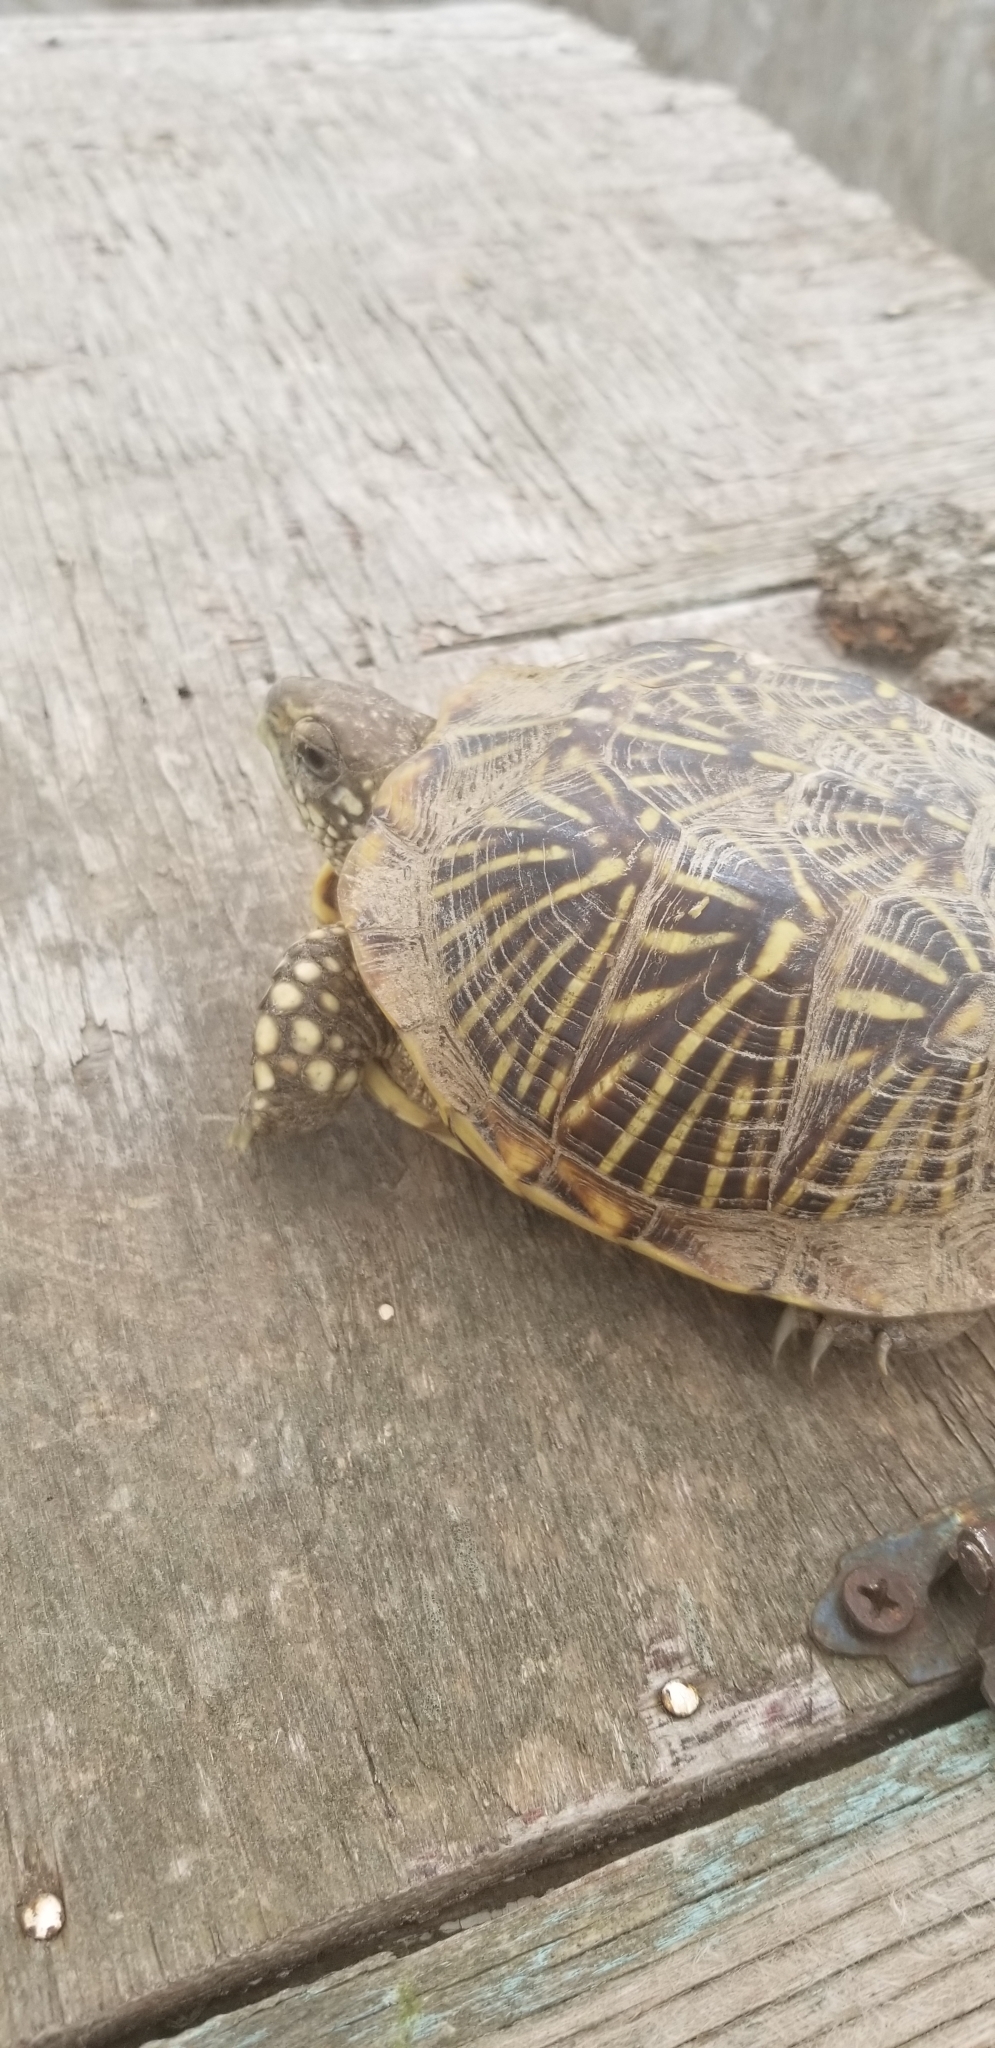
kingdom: Animalia
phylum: Chordata
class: Testudines
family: Emydidae
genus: Terrapene
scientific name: Terrapene ornata
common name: Western box turtle
